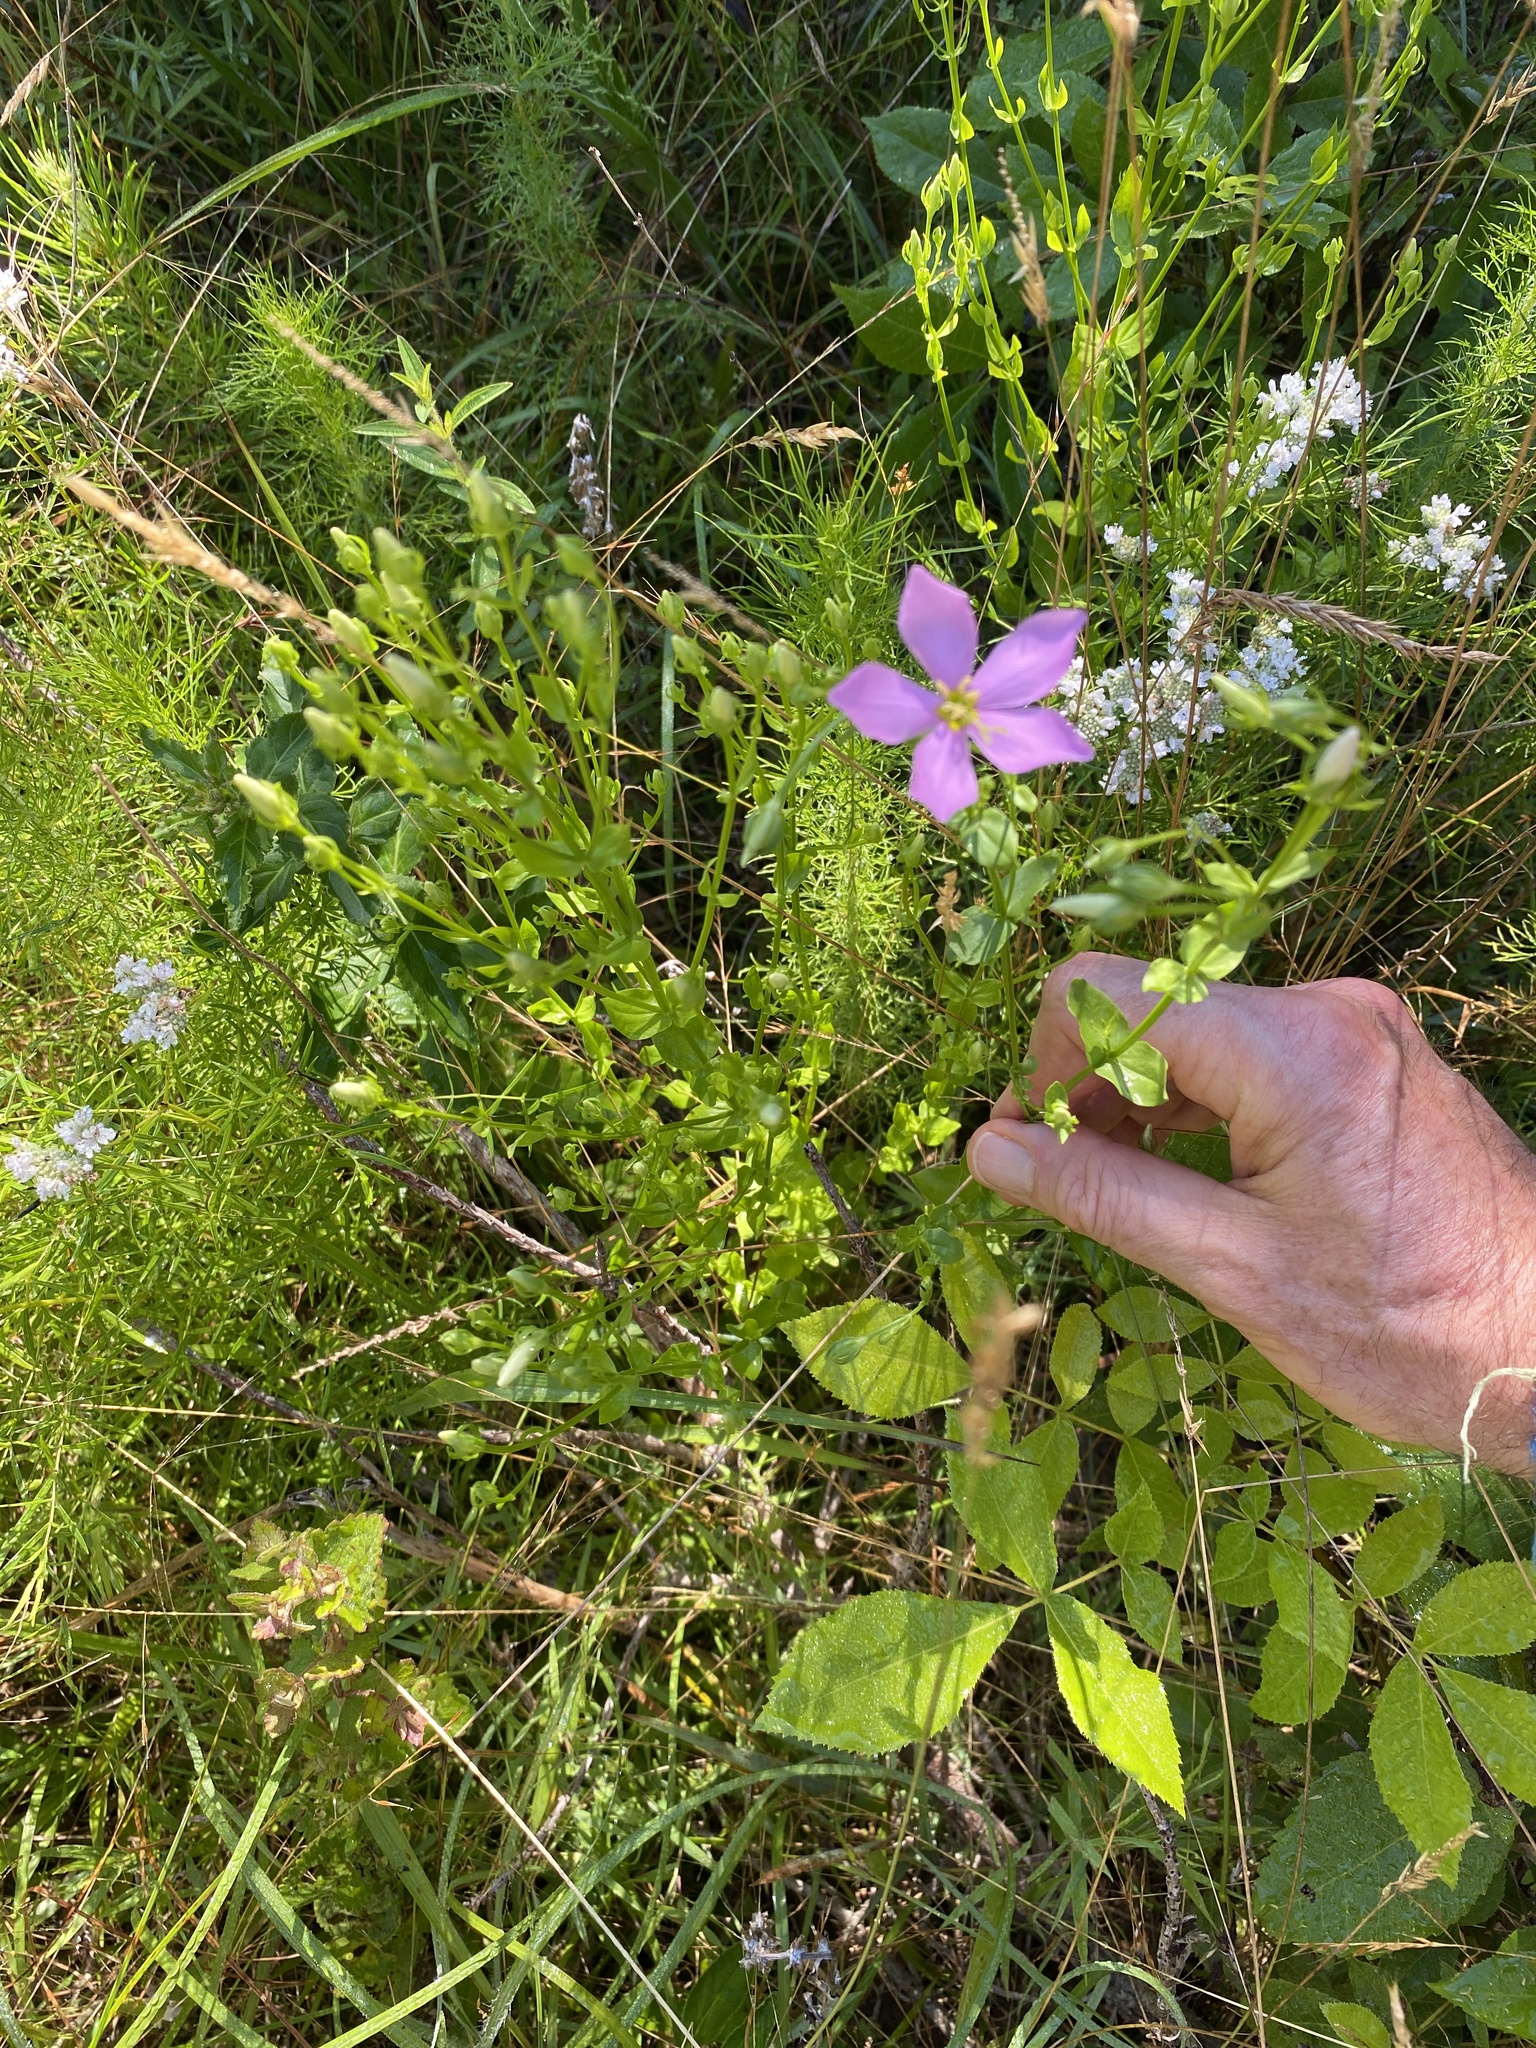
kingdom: Plantae
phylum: Tracheophyta
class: Magnoliopsida
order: Gentianales
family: Gentianaceae
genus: Sabatia
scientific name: Sabatia angularis
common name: Rose-pink
